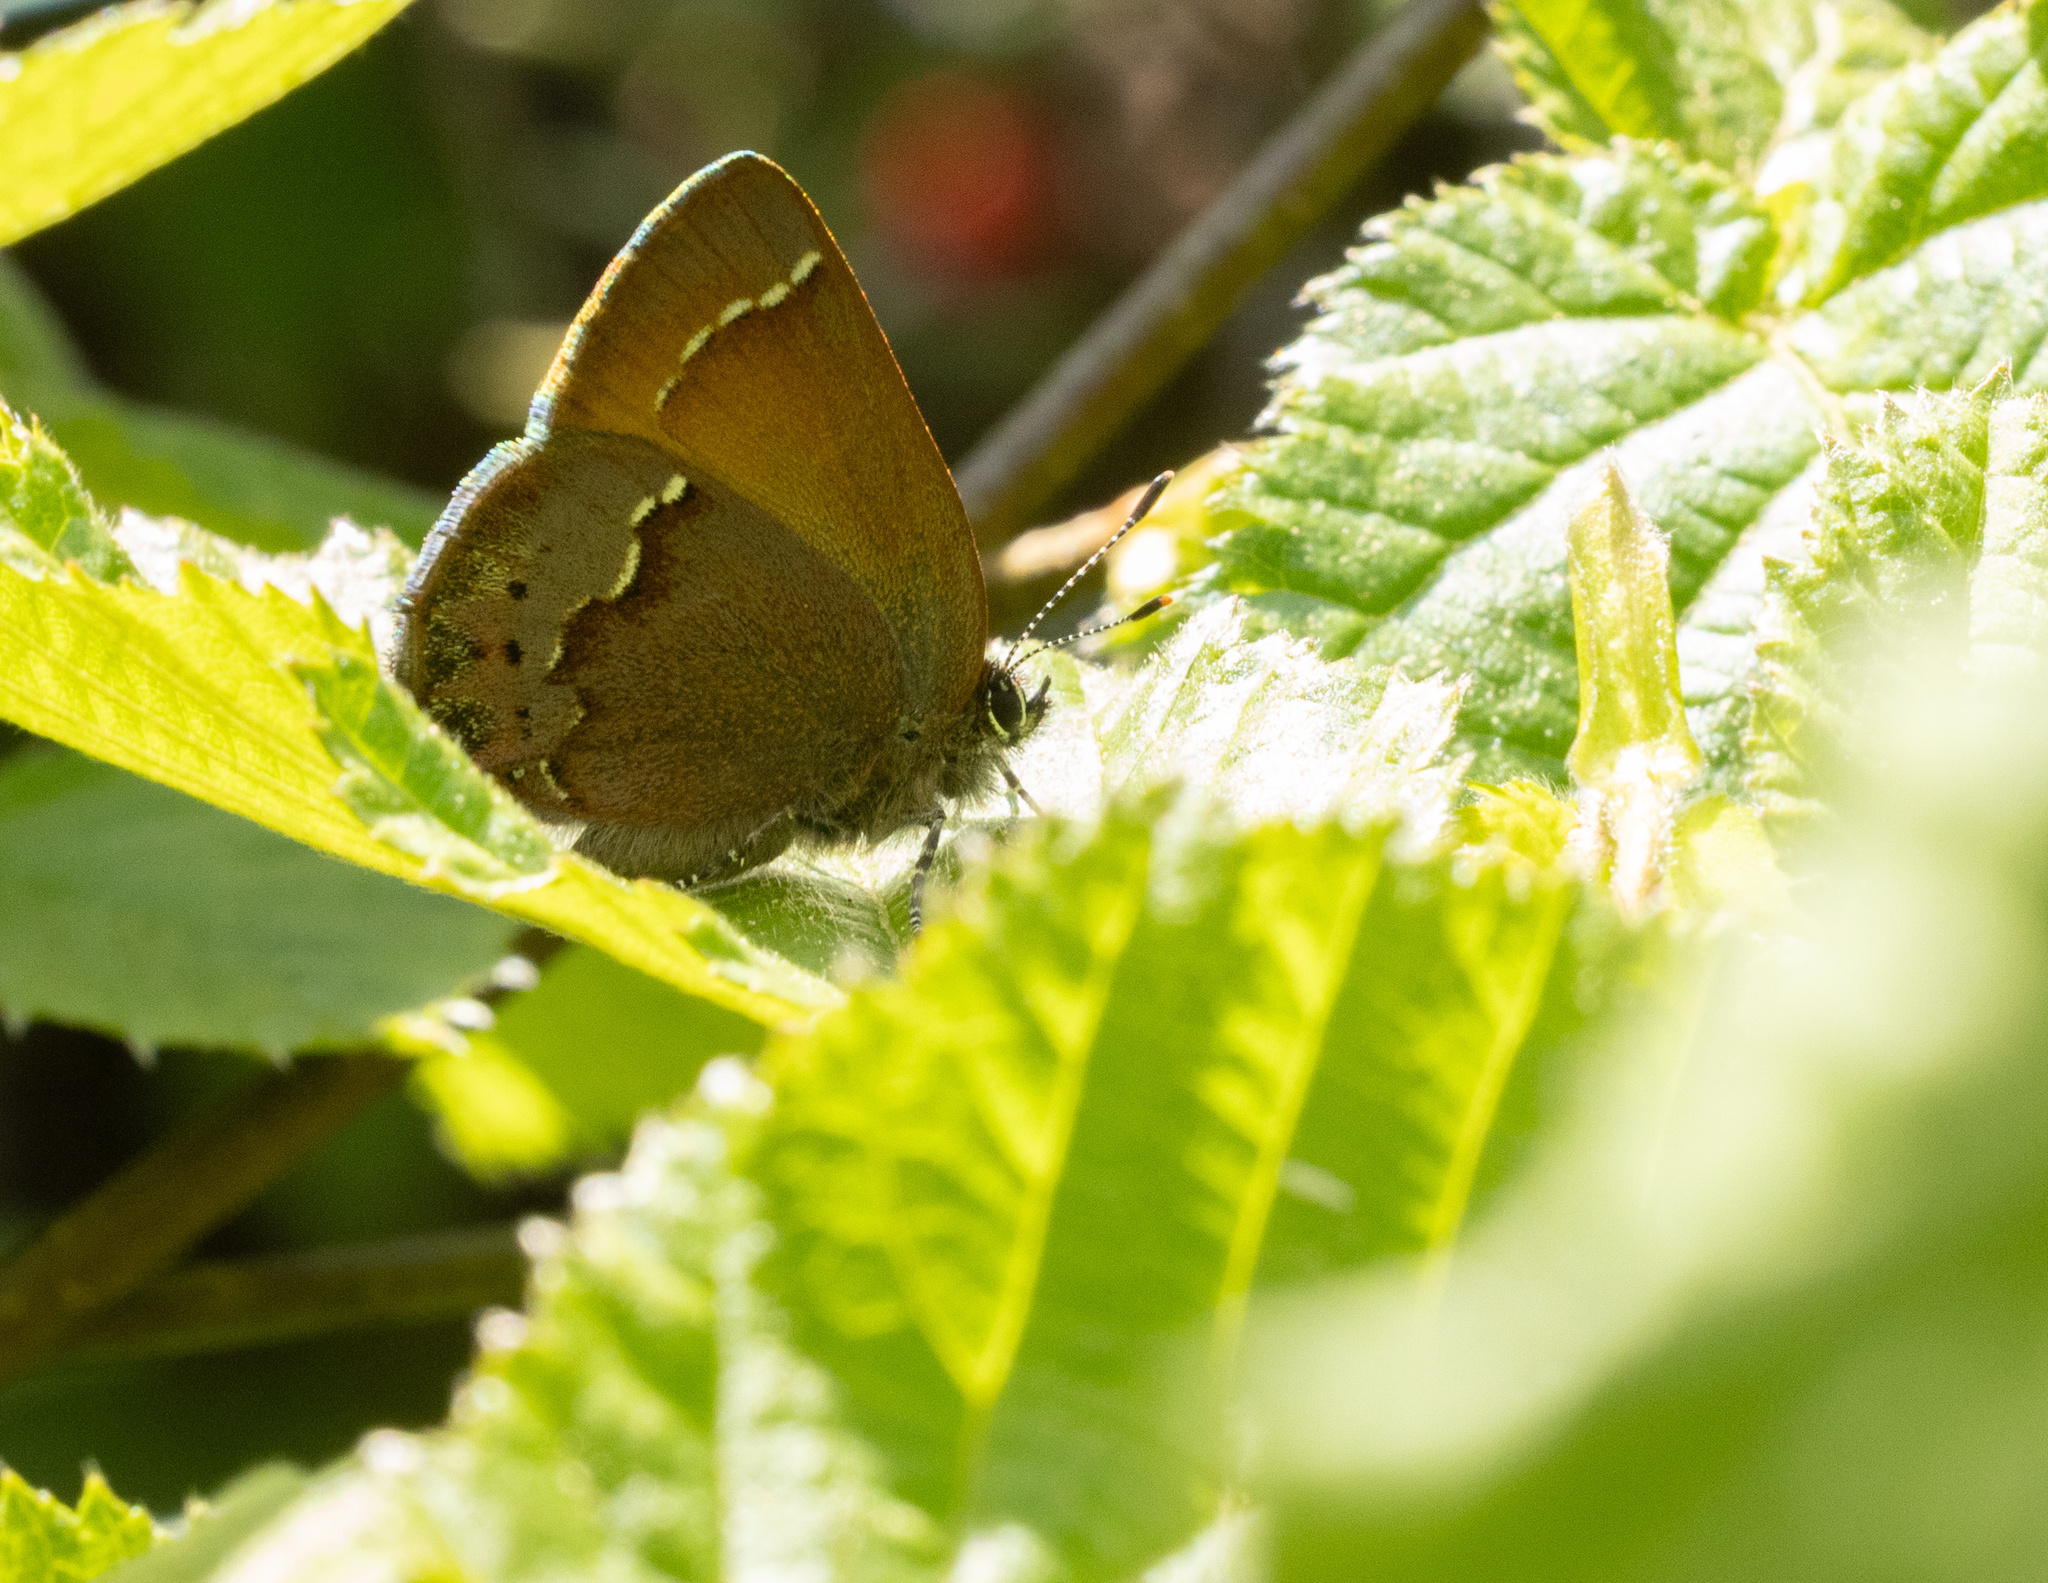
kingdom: Animalia
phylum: Arthropoda
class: Insecta
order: Lepidoptera
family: Lycaenidae
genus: Mitoura
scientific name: Mitoura gryneus
